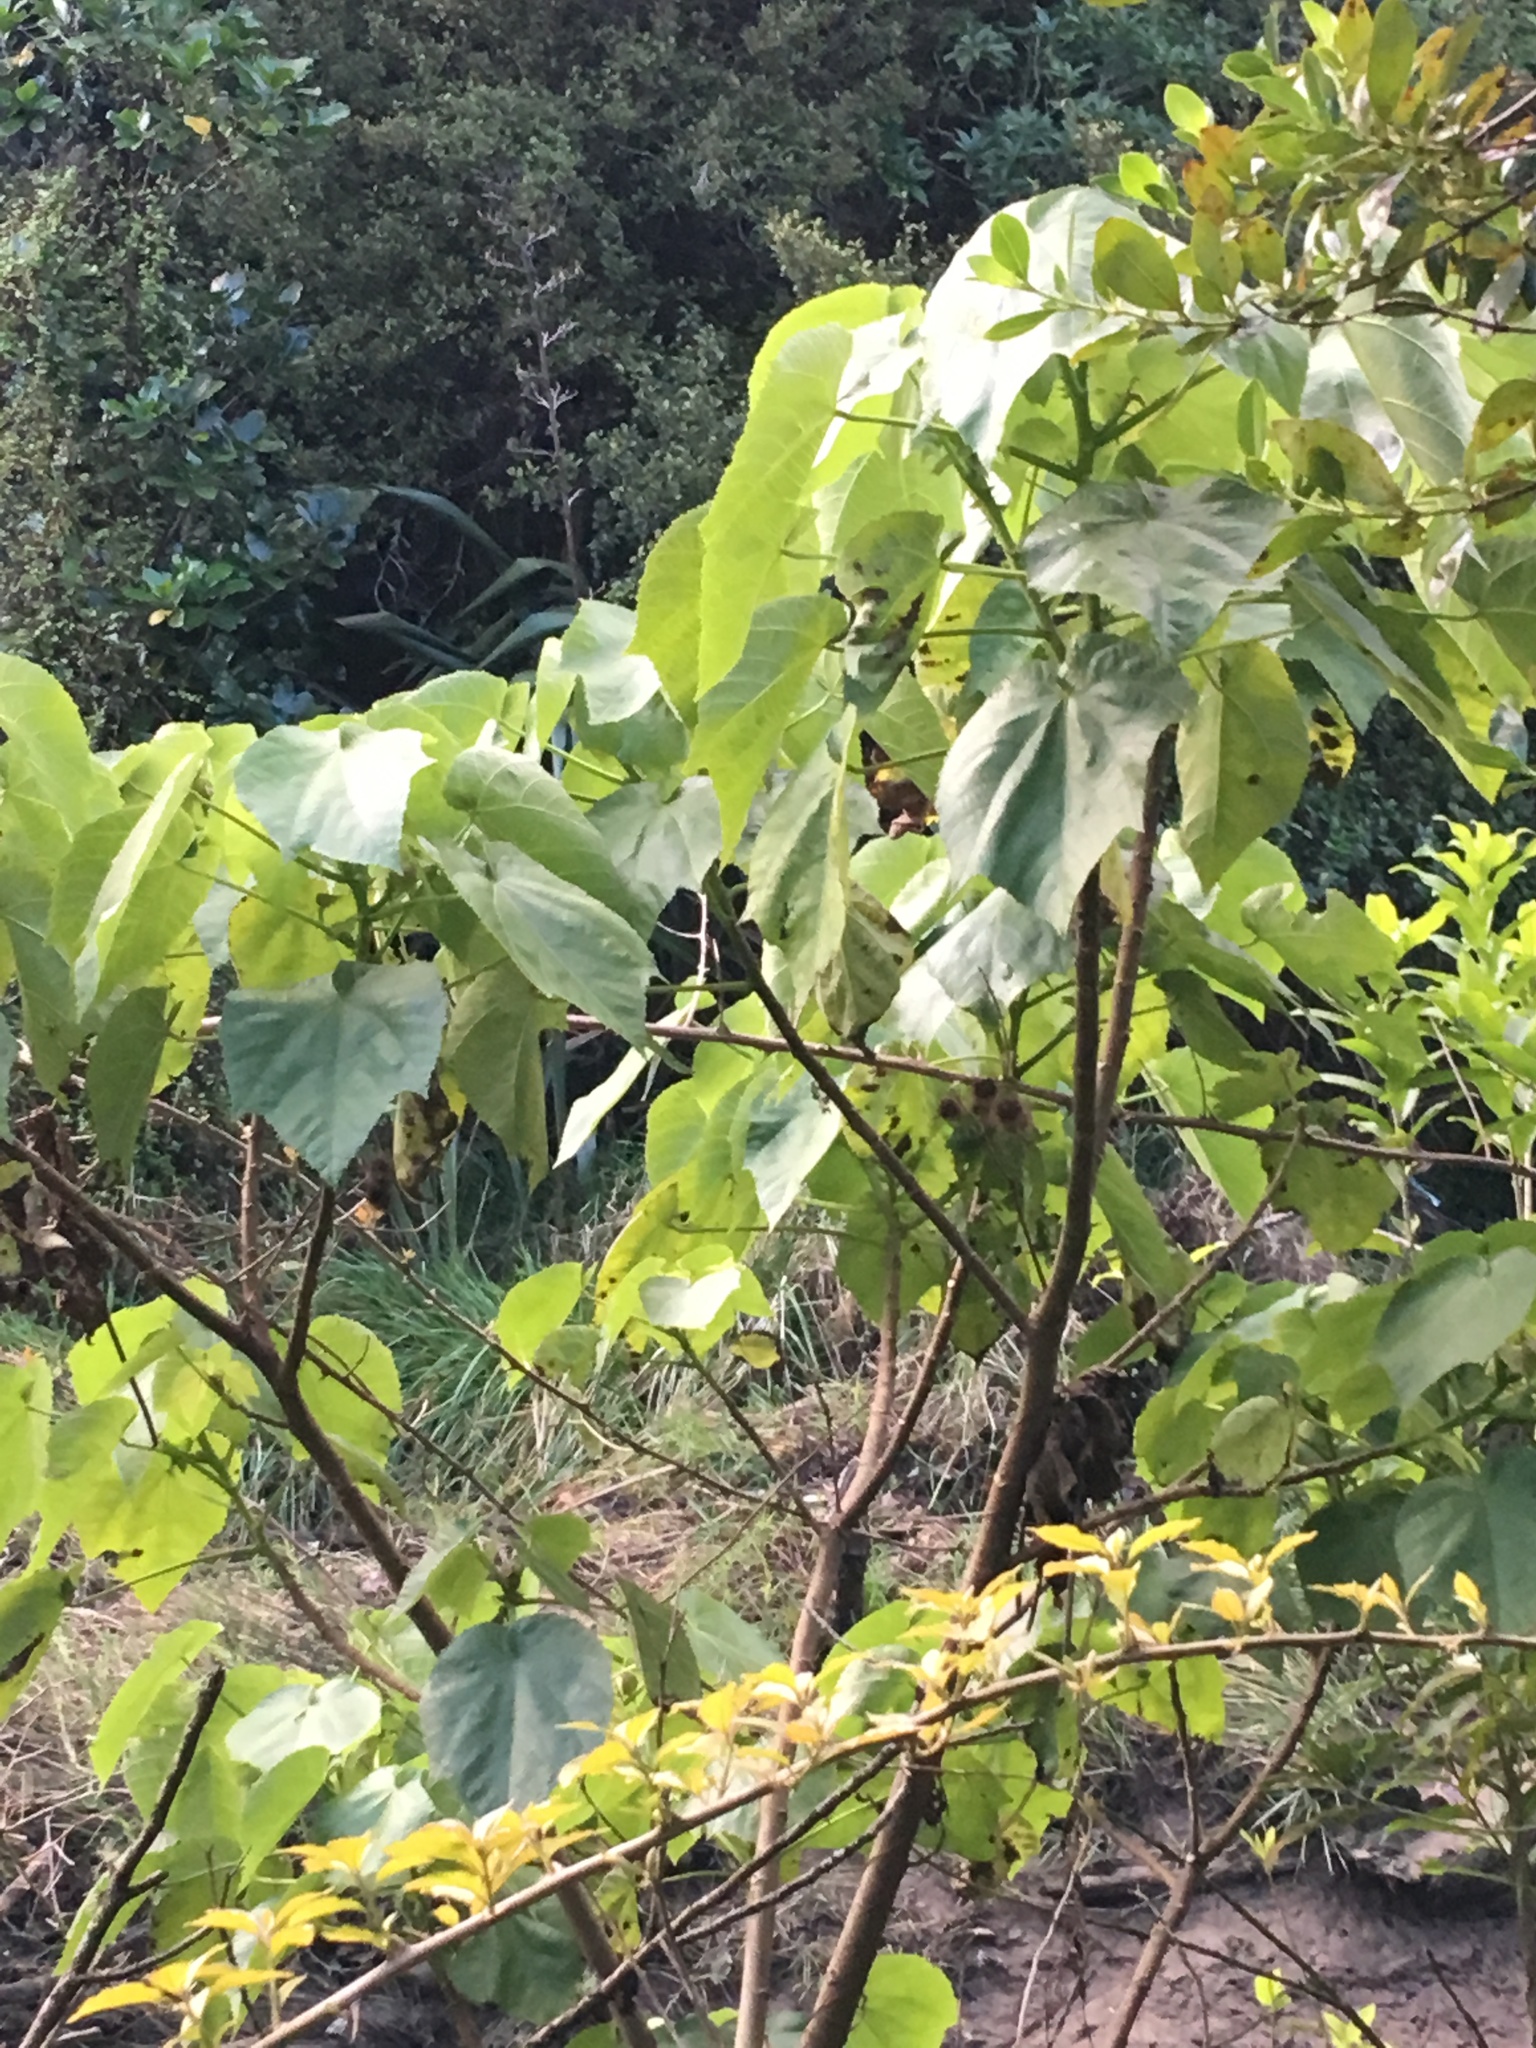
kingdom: Plantae
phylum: Tracheophyta
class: Magnoliopsida
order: Malvales
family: Malvaceae
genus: Entelea
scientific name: Entelea arborescens
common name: New zealand-mulberry
